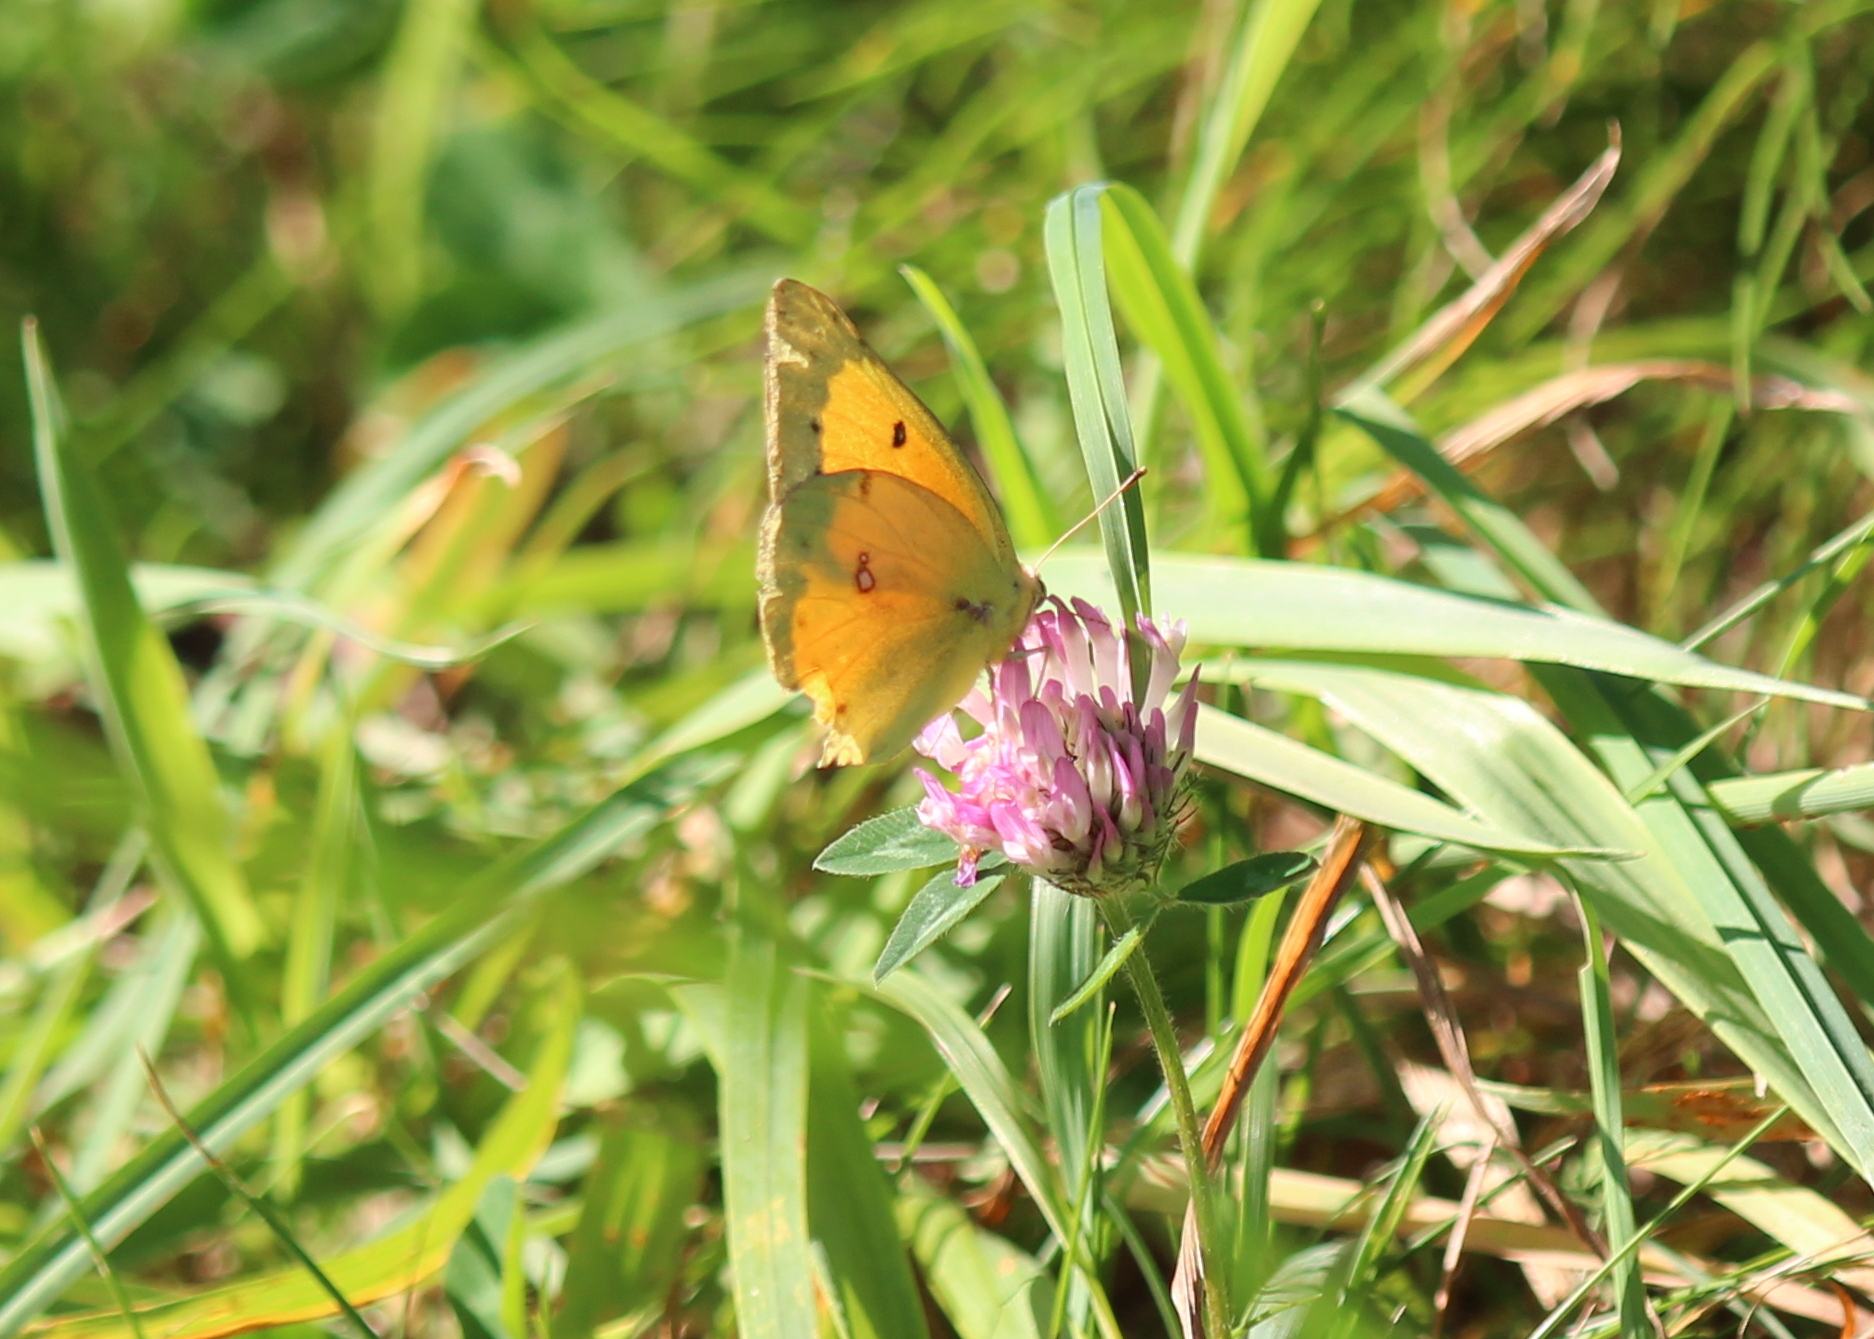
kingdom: Animalia
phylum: Arthropoda
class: Insecta
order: Lepidoptera
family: Pieridae
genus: Colias
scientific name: Colias eurytheme
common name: Alfalfa butterfly
